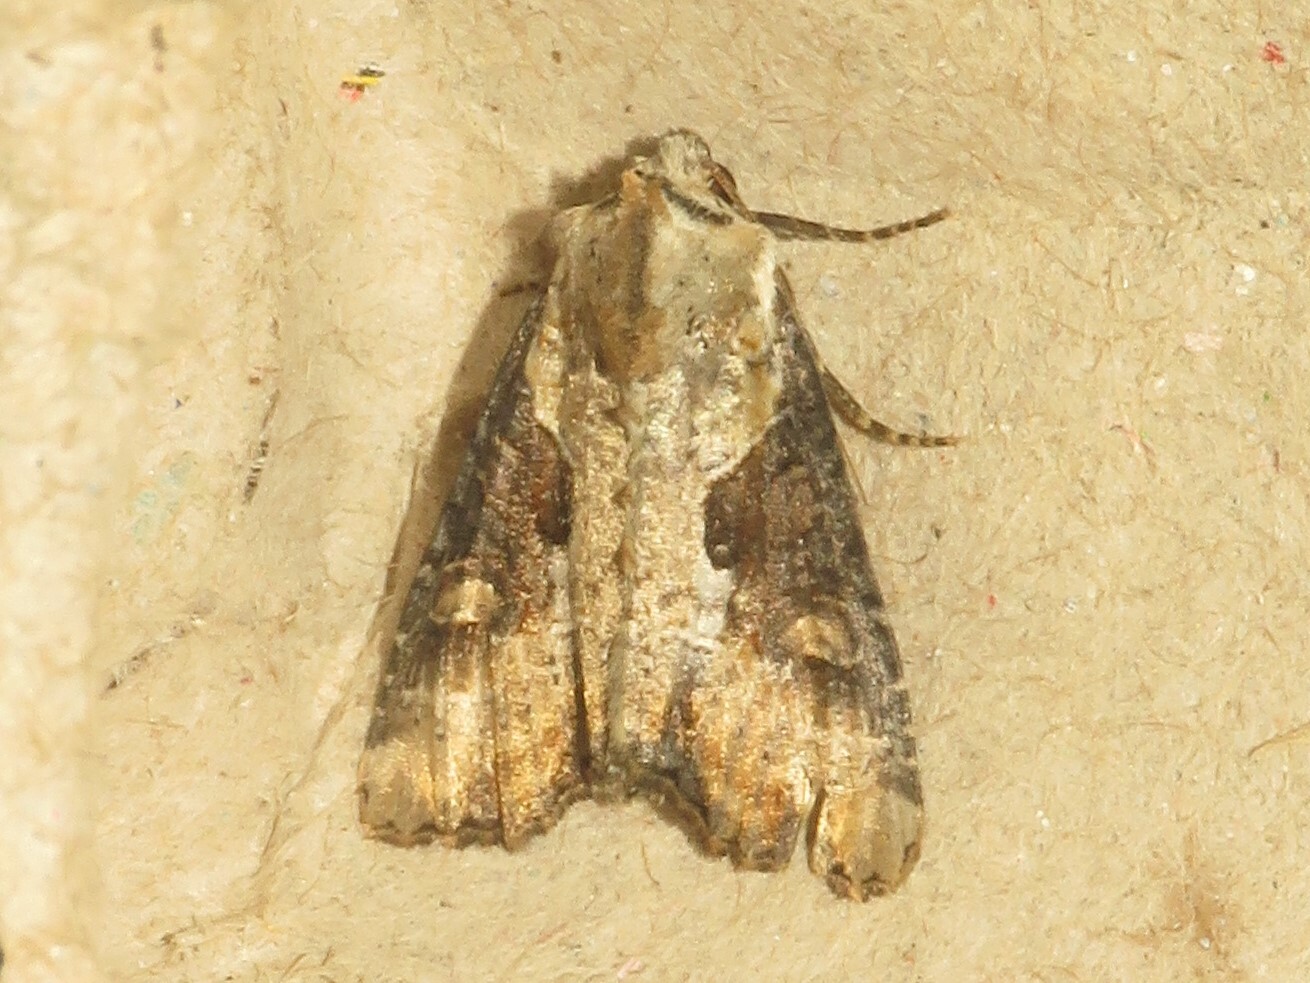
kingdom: Animalia
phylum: Arthropoda
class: Insecta
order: Lepidoptera
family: Noctuidae
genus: Lateroligia
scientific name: Lateroligia ophiogramma
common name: Double lobed
